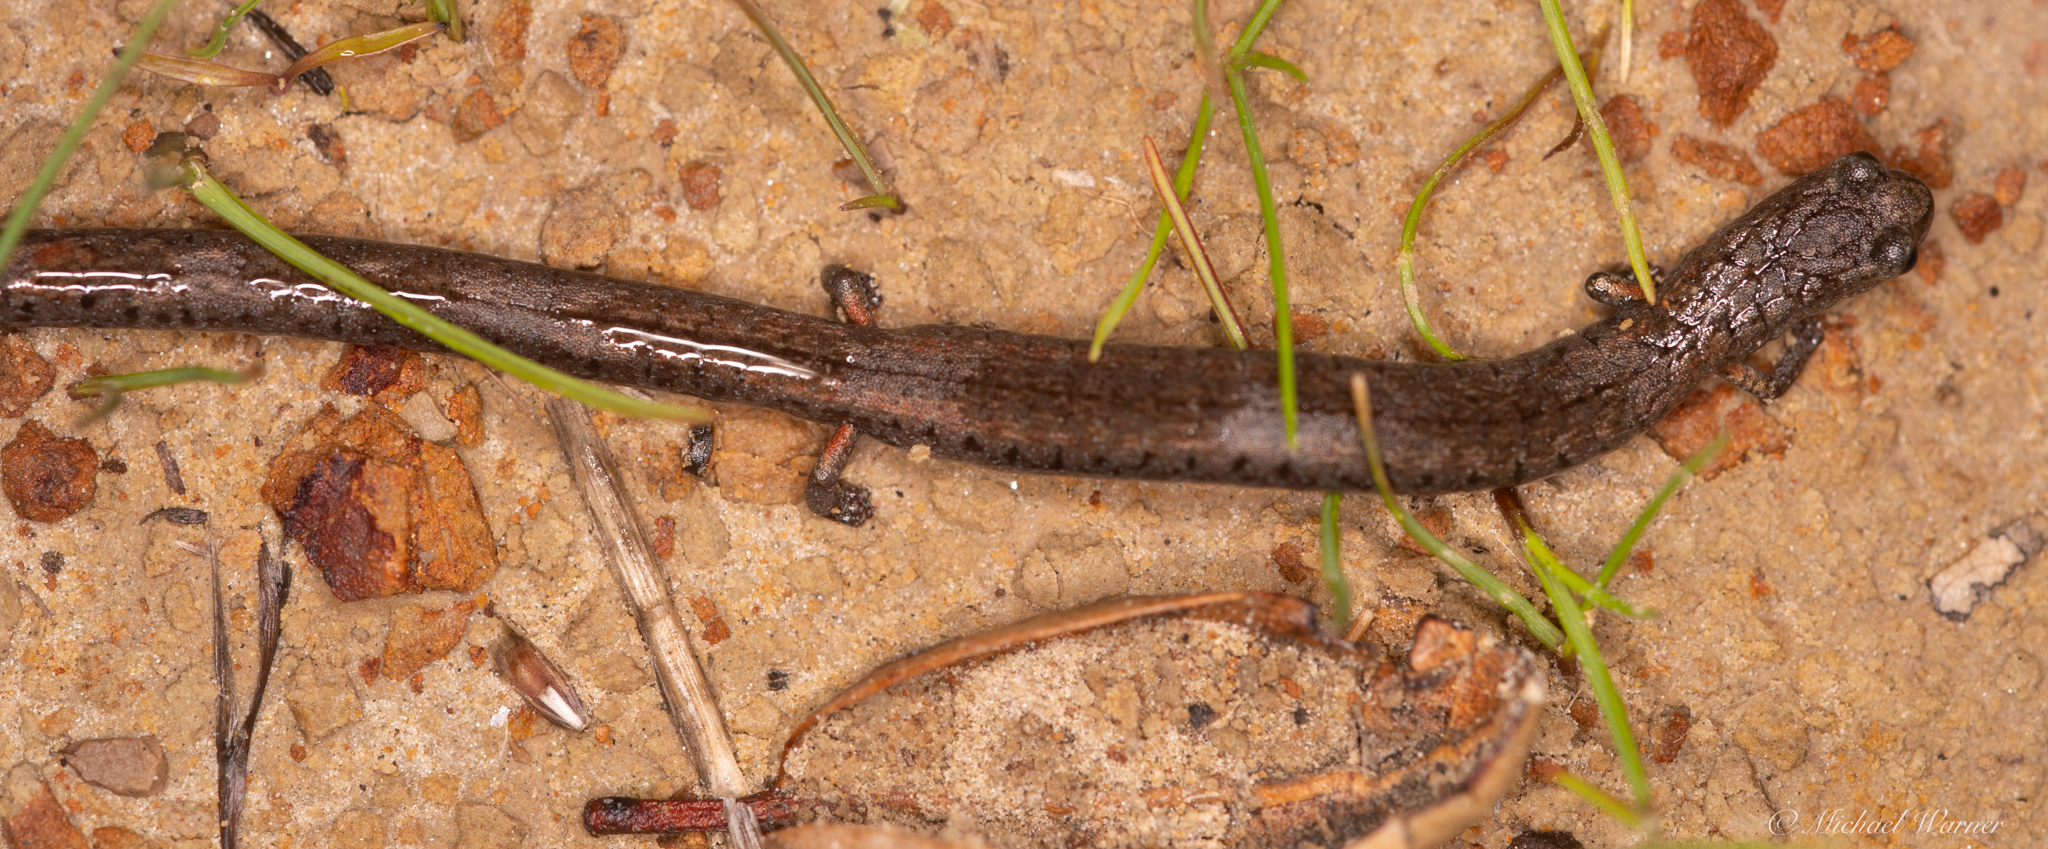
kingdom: Animalia
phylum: Chordata
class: Amphibia
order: Caudata
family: Plethodontidae
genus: Batrachoseps
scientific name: Batrachoseps attenuatus
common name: California slender salamander
